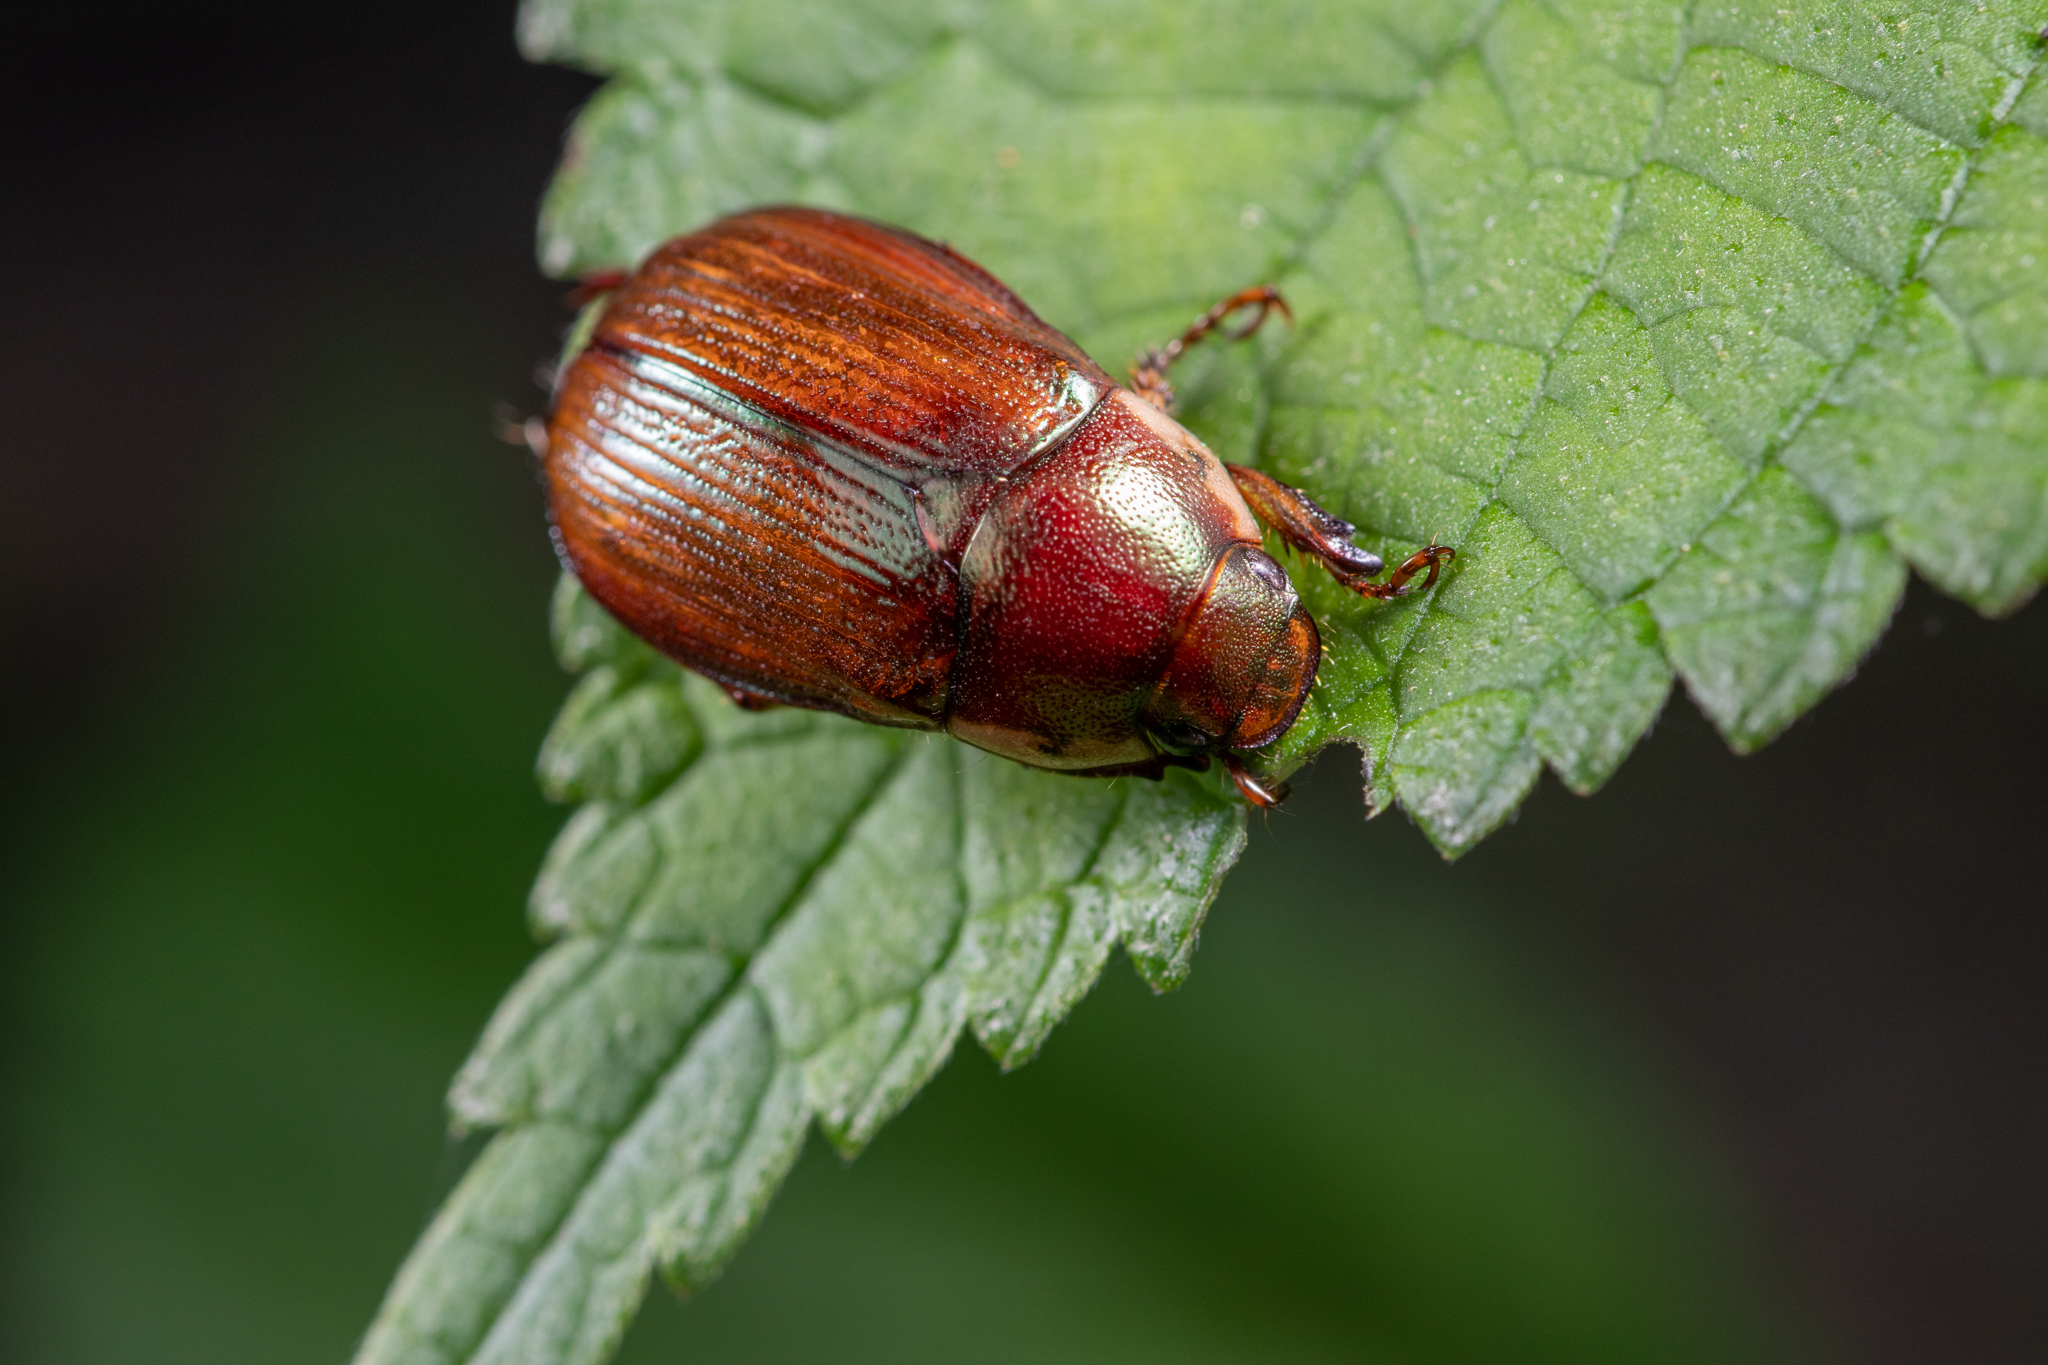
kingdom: Animalia
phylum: Arthropoda
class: Insecta
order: Coleoptera
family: Scarabaeidae
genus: Callistethus
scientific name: Callistethus marginatus
